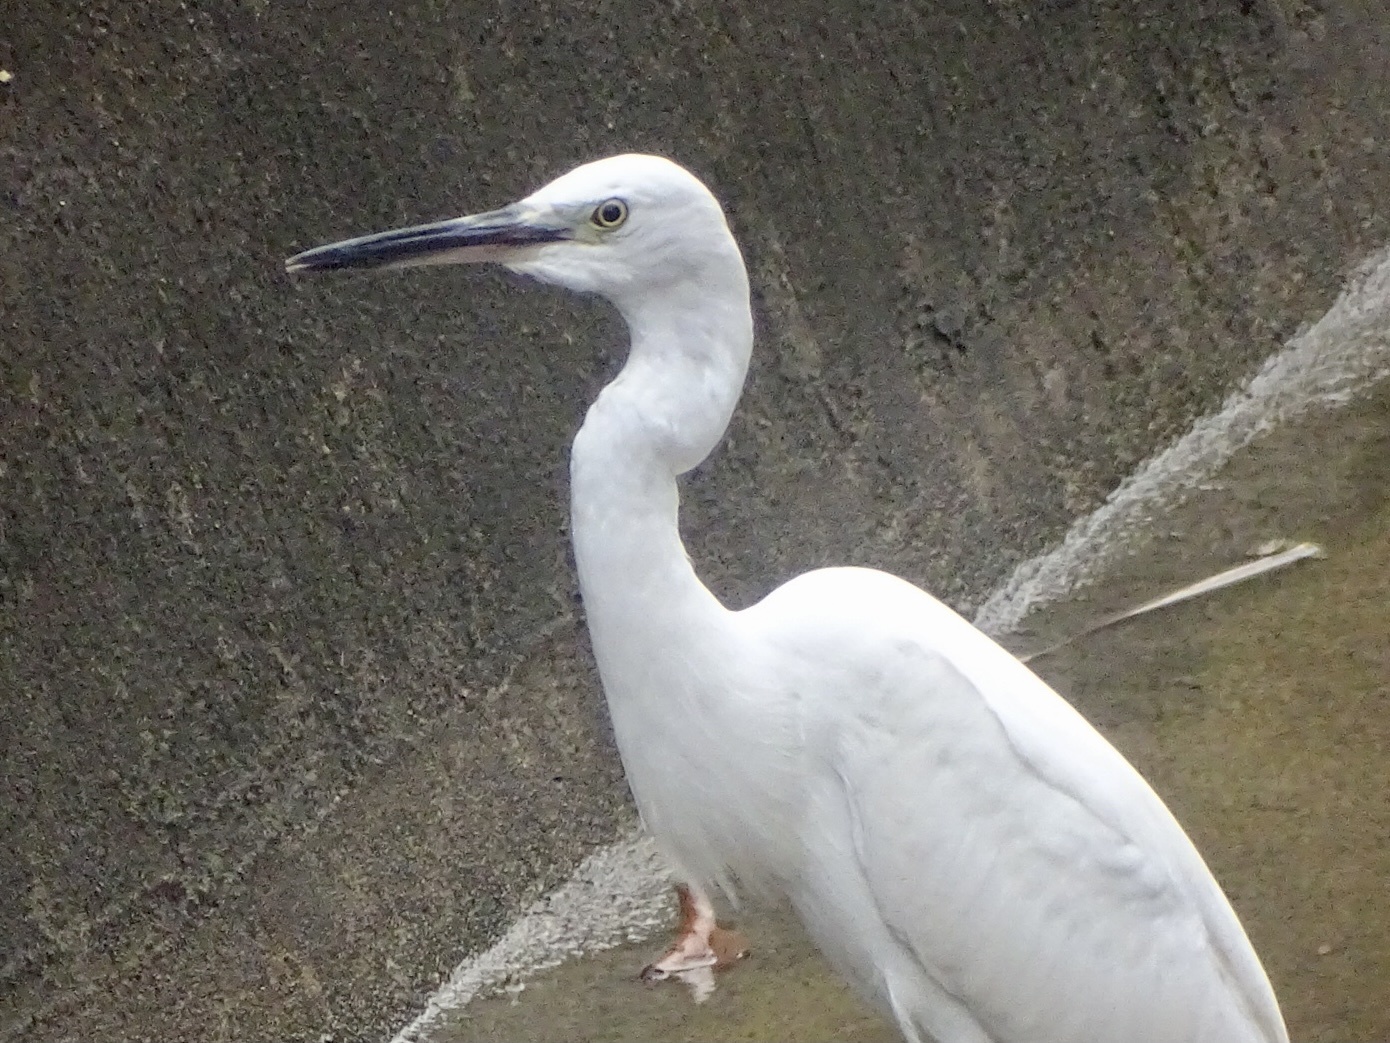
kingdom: Animalia
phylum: Chordata
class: Aves
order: Pelecaniformes
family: Ardeidae
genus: Egretta
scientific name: Egretta garzetta
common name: Little egret
